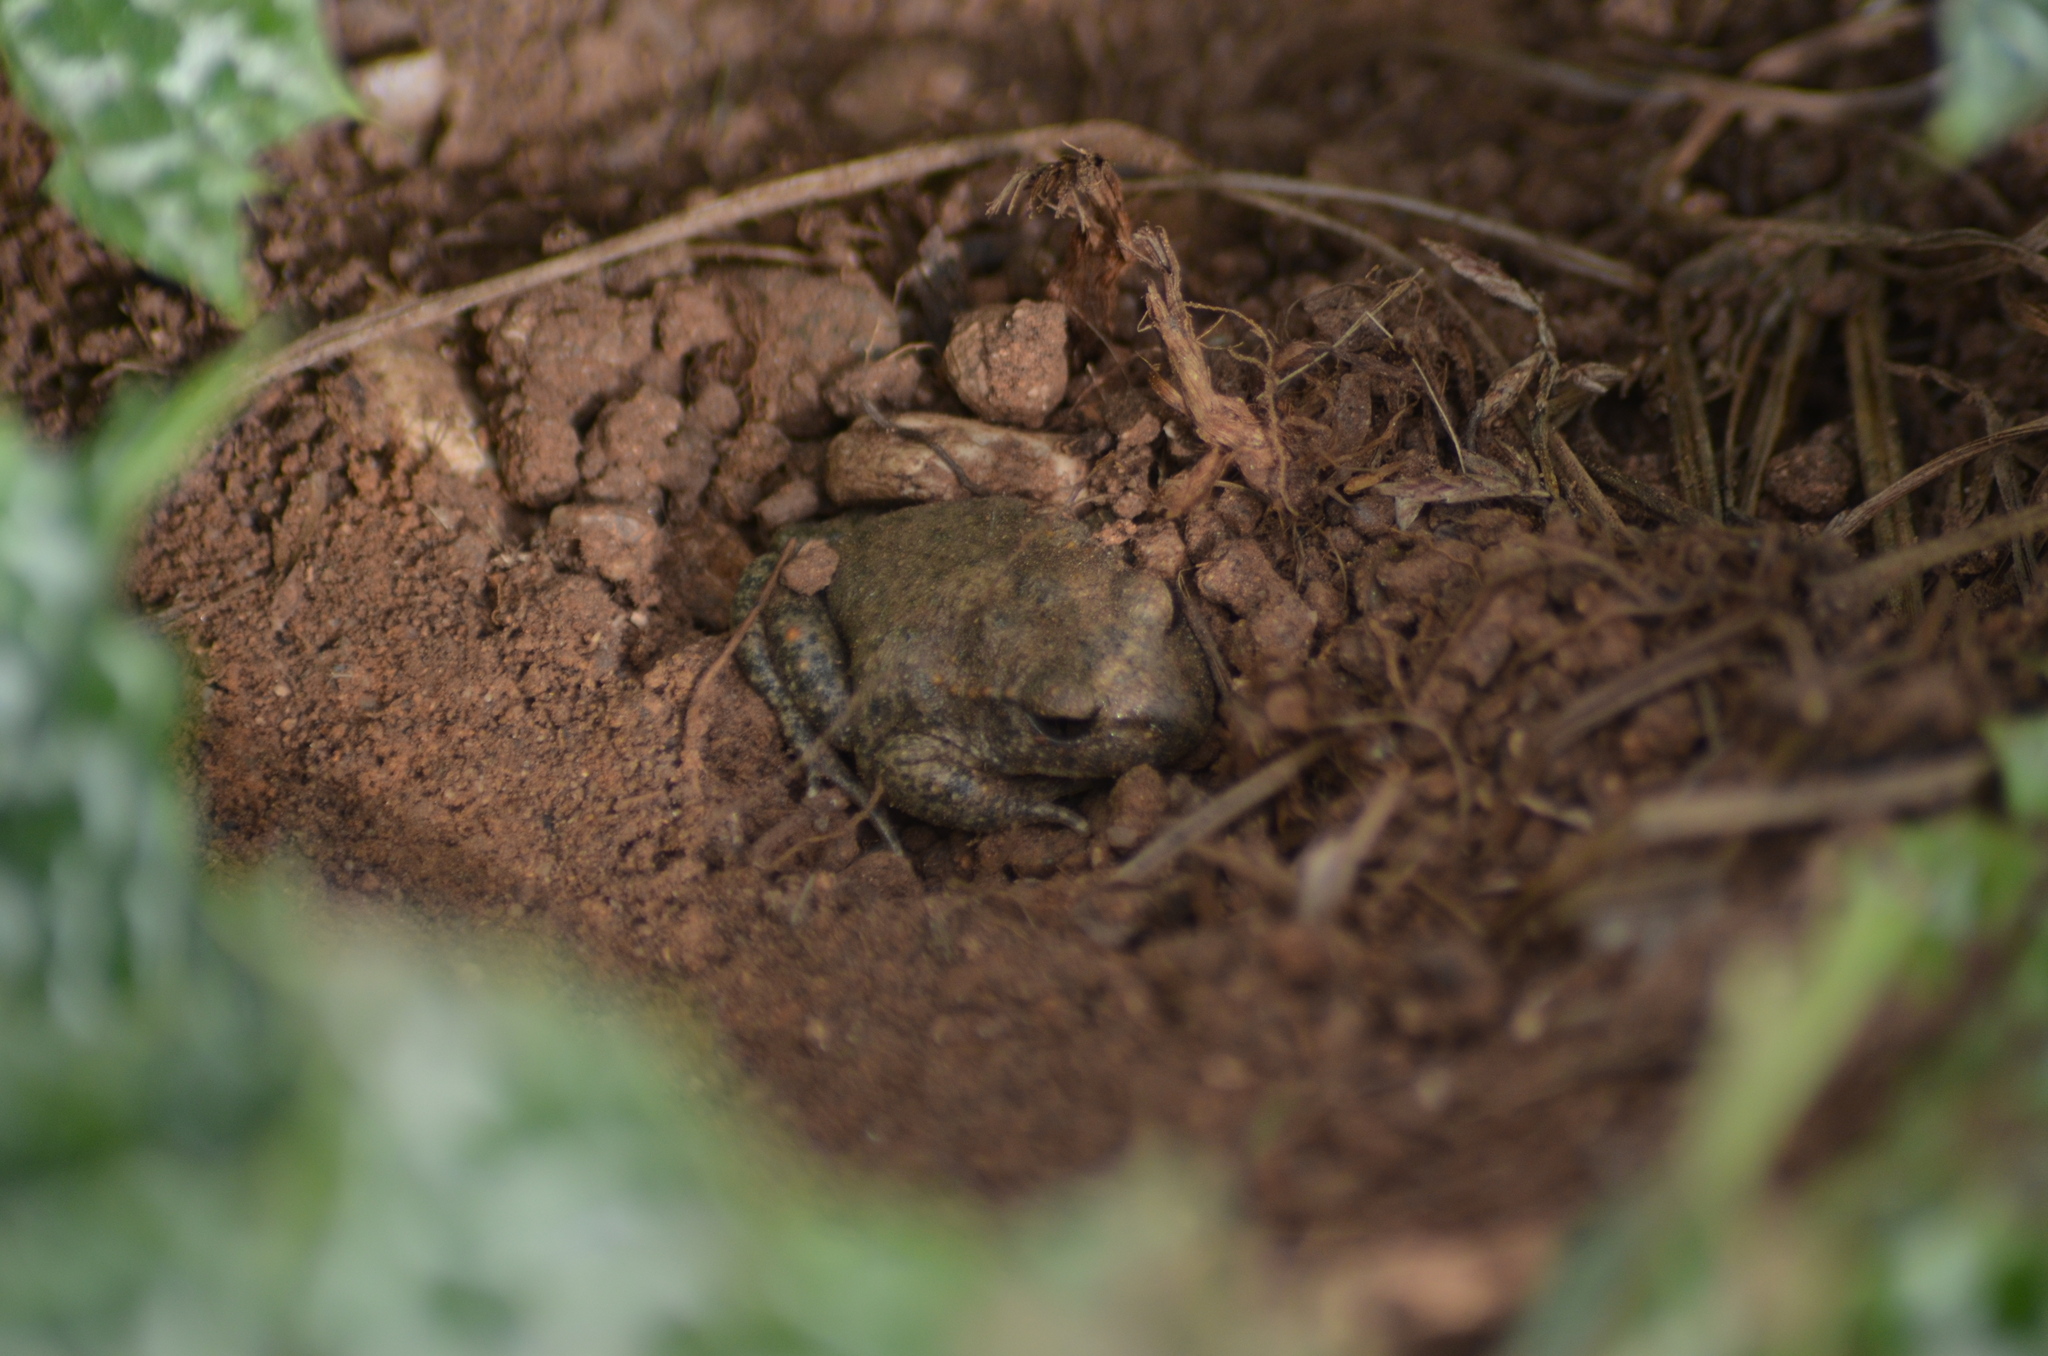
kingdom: Animalia
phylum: Chordata
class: Amphibia
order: Anura
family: Alytidae
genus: Alytes
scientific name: Alytes obstetricans
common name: Midwife toad
